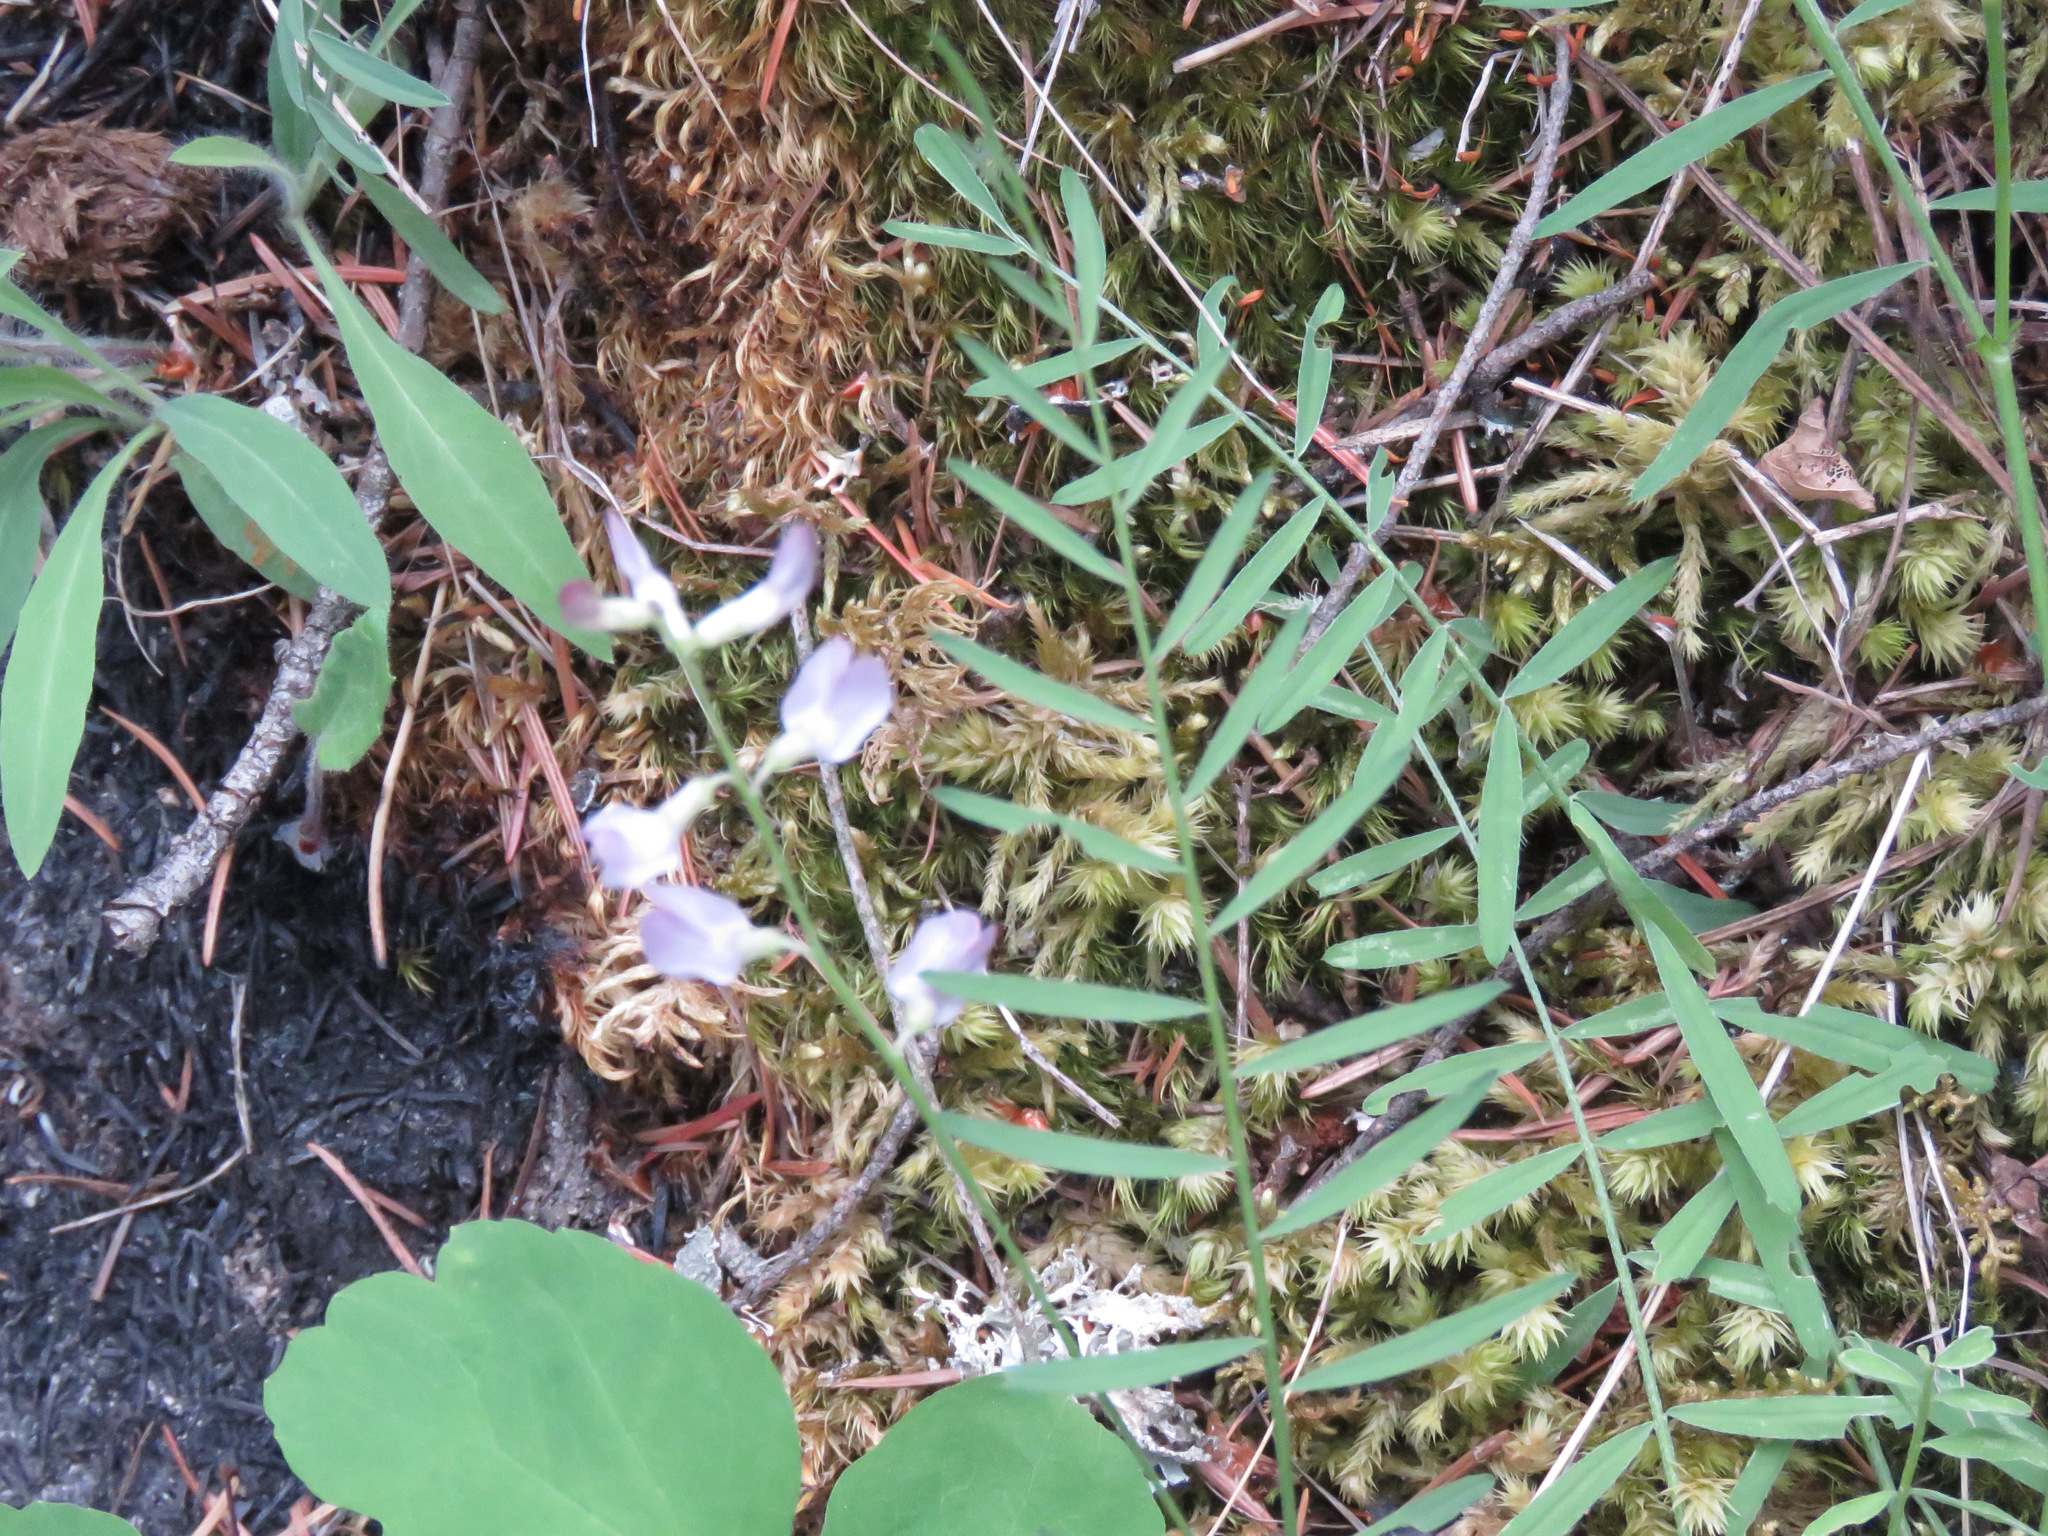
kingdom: Plantae
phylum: Tracheophyta
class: Magnoliopsida
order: Fabales
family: Fabaceae
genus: Astragalus
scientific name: Astragalus miser
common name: Timber milkvetch
